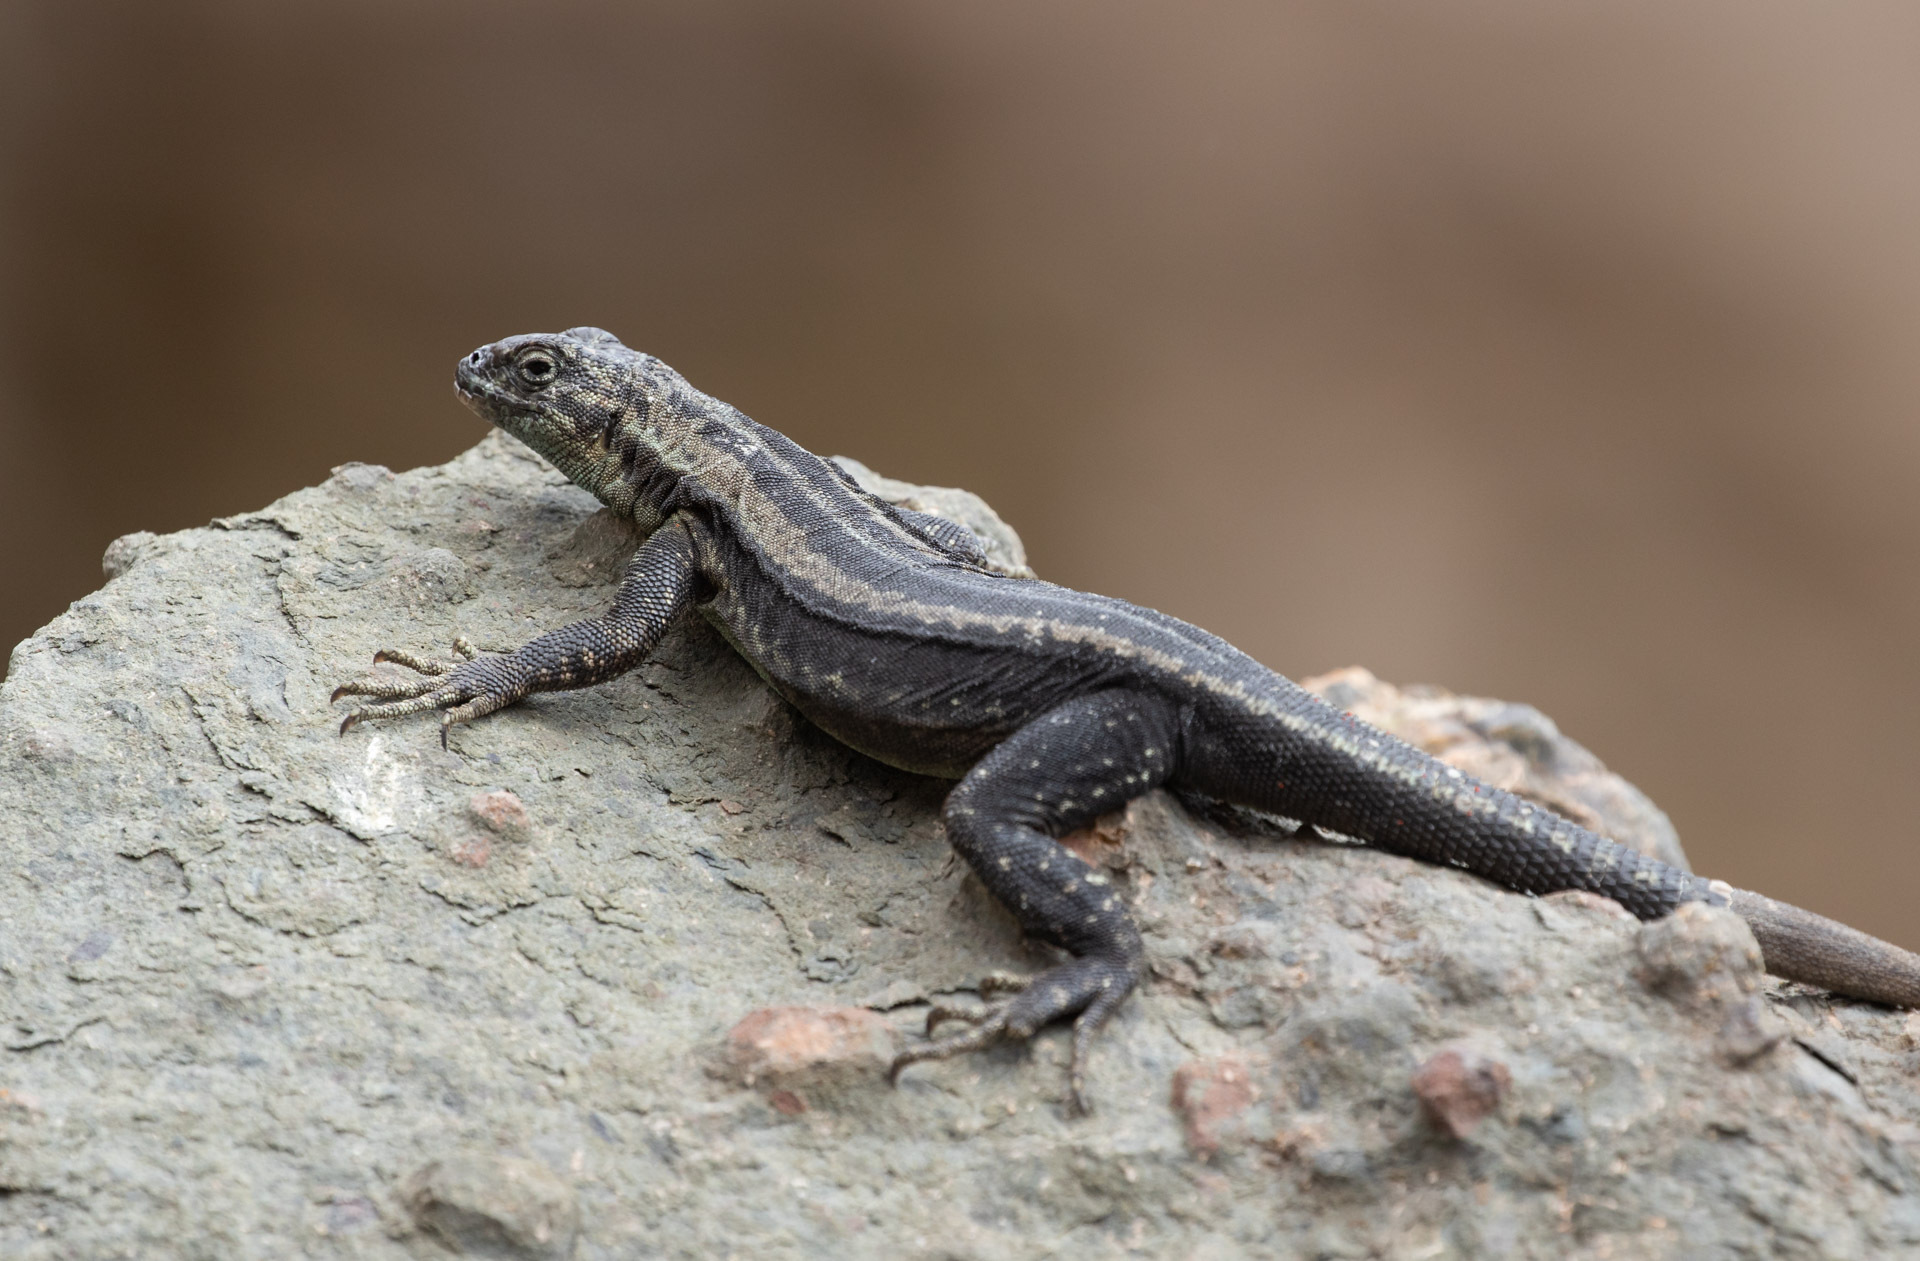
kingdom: Animalia
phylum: Chordata
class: Squamata
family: Tropiduridae
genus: Microlophus
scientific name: Microlophus quadrivittatus
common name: Four-banded pacific iguana
